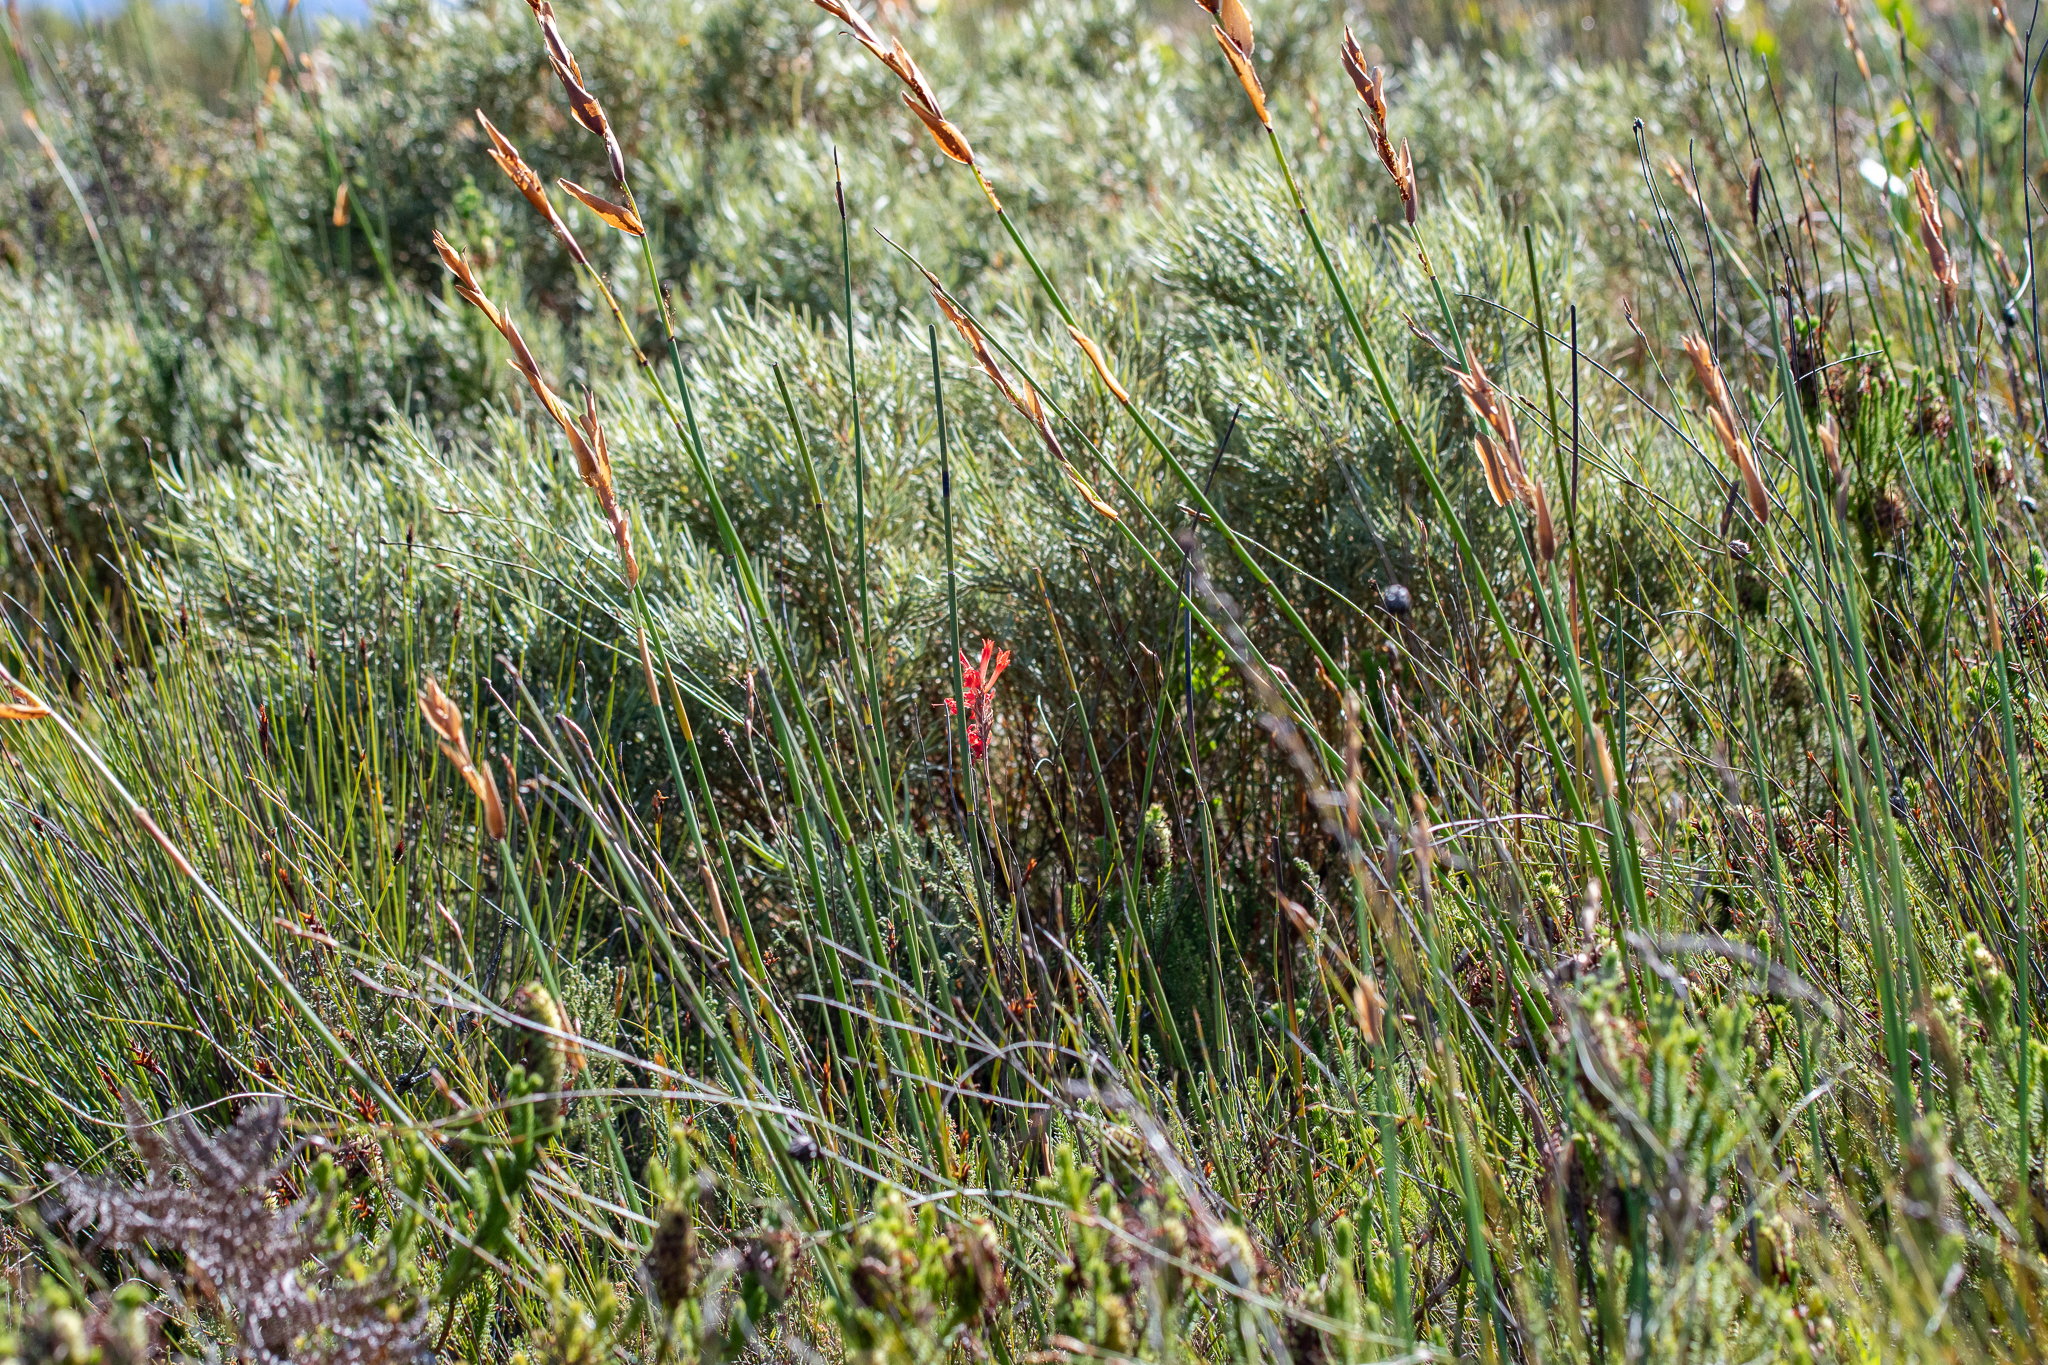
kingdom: Plantae
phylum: Tracheophyta
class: Liliopsida
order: Asparagales
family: Iridaceae
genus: Tritoniopsis
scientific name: Tritoniopsis triticea
